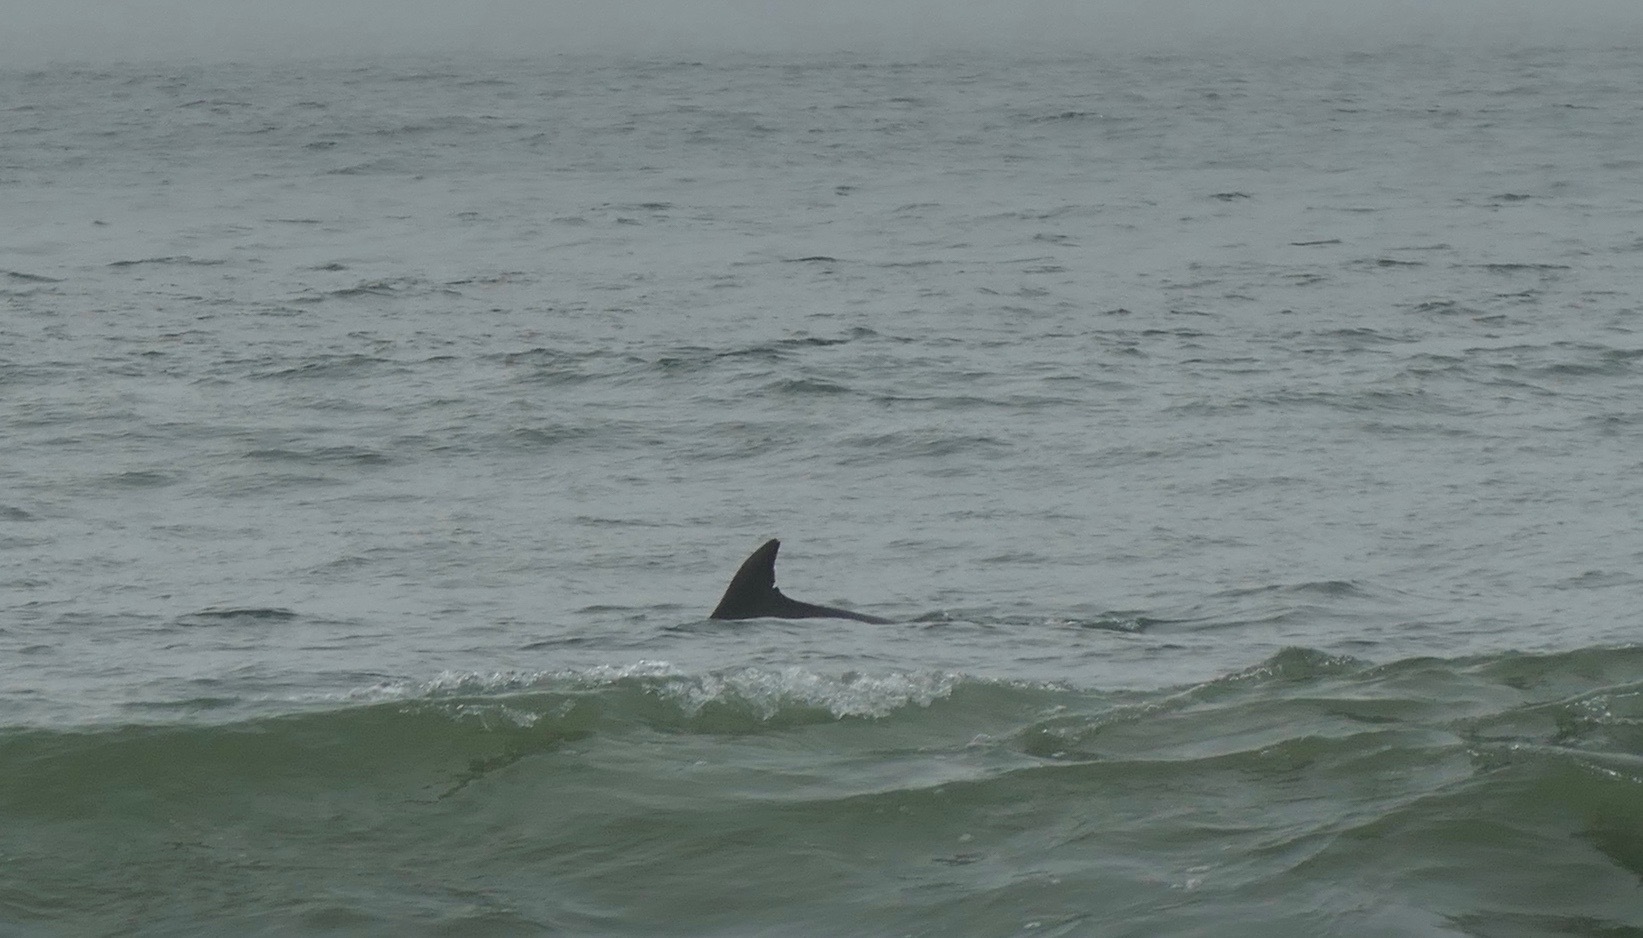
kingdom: Animalia
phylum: Chordata
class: Mammalia
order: Cetacea
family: Delphinidae
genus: Tursiops
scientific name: Tursiops truncatus
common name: Bottlenose dolphin
